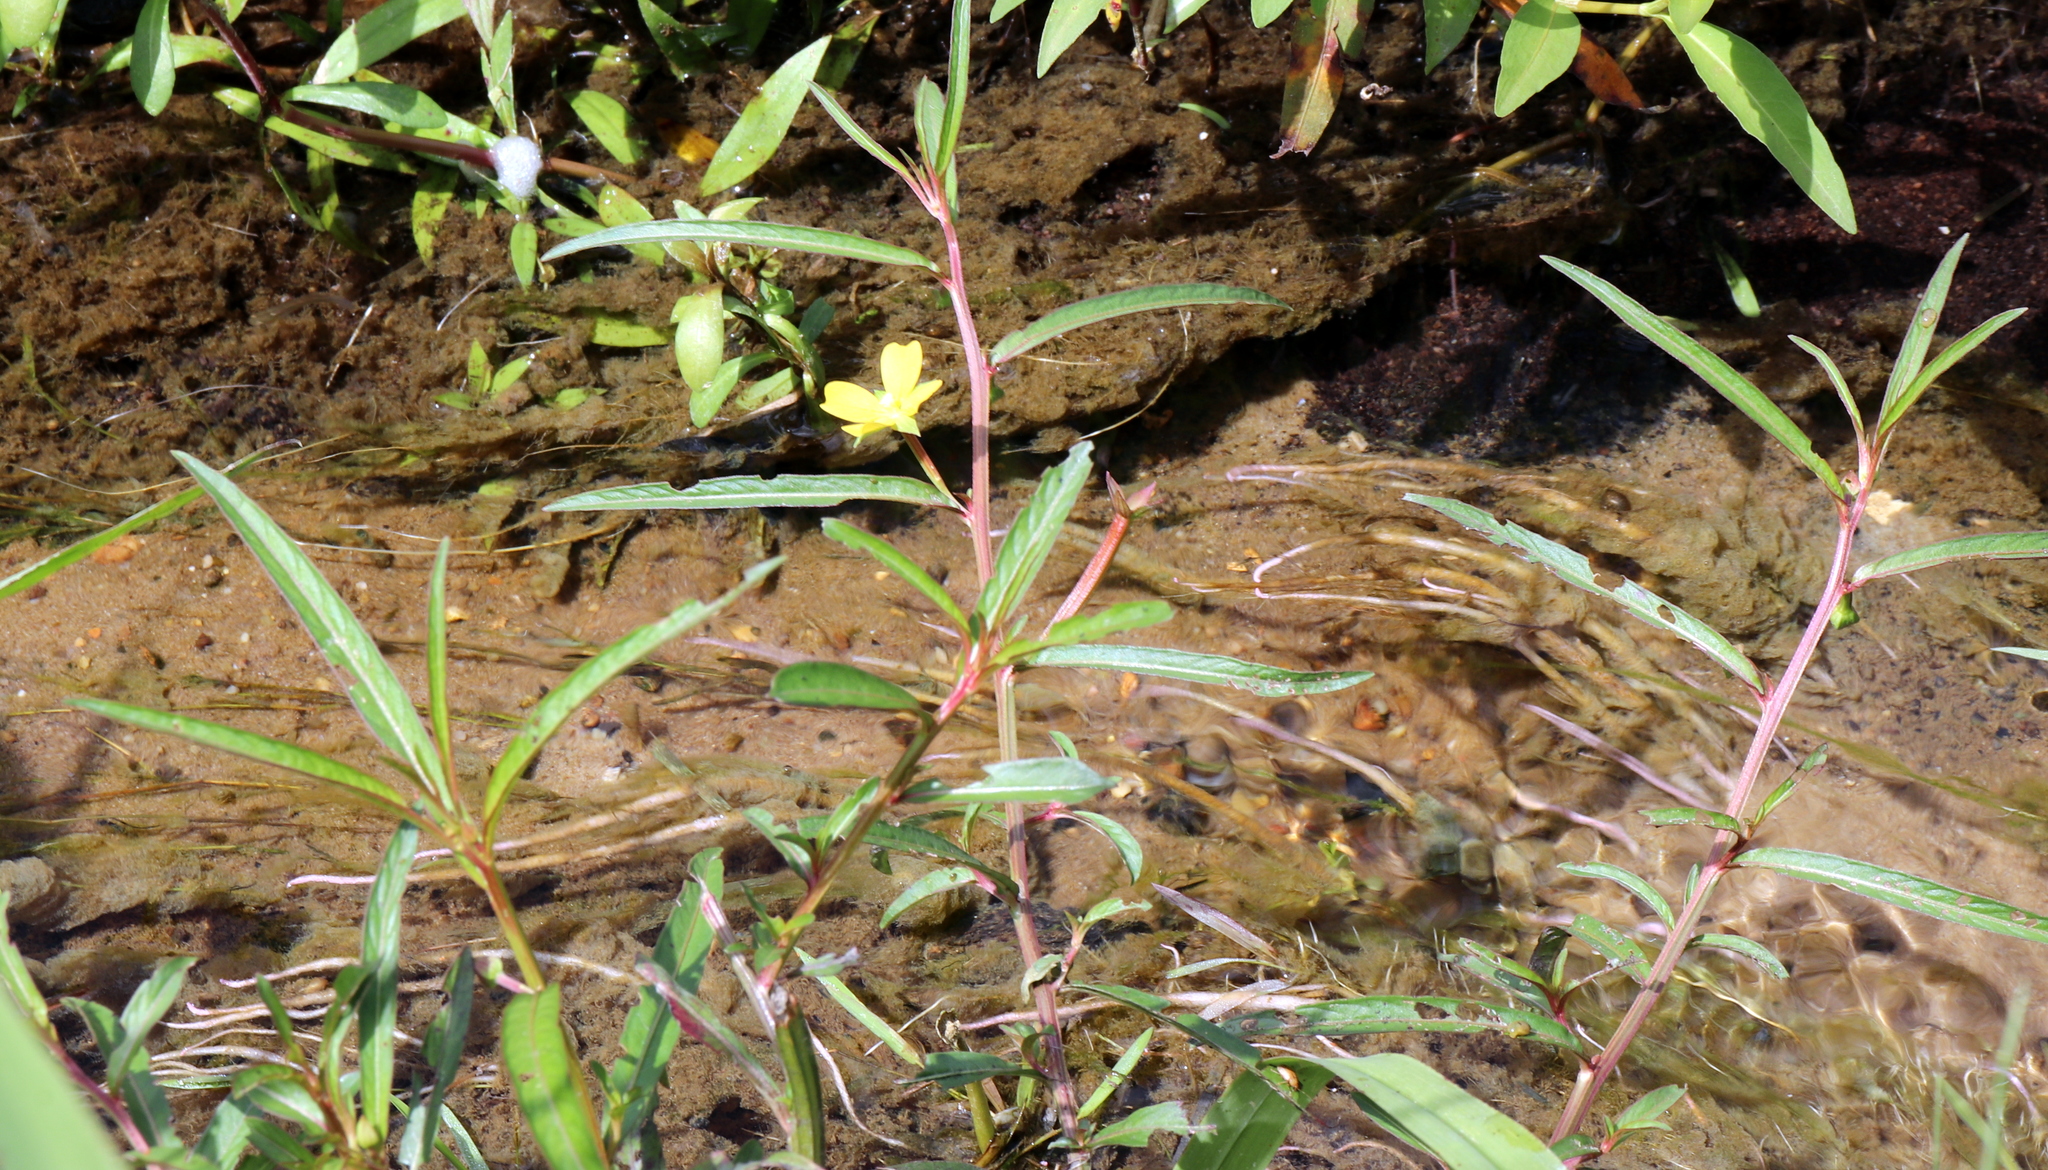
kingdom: Plantae
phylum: Tracheophyta
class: Magnoliopsida
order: Myrtales
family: Onagraceae
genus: Ludwigia
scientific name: Ludwigia octovalvis
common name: Water-primrose
